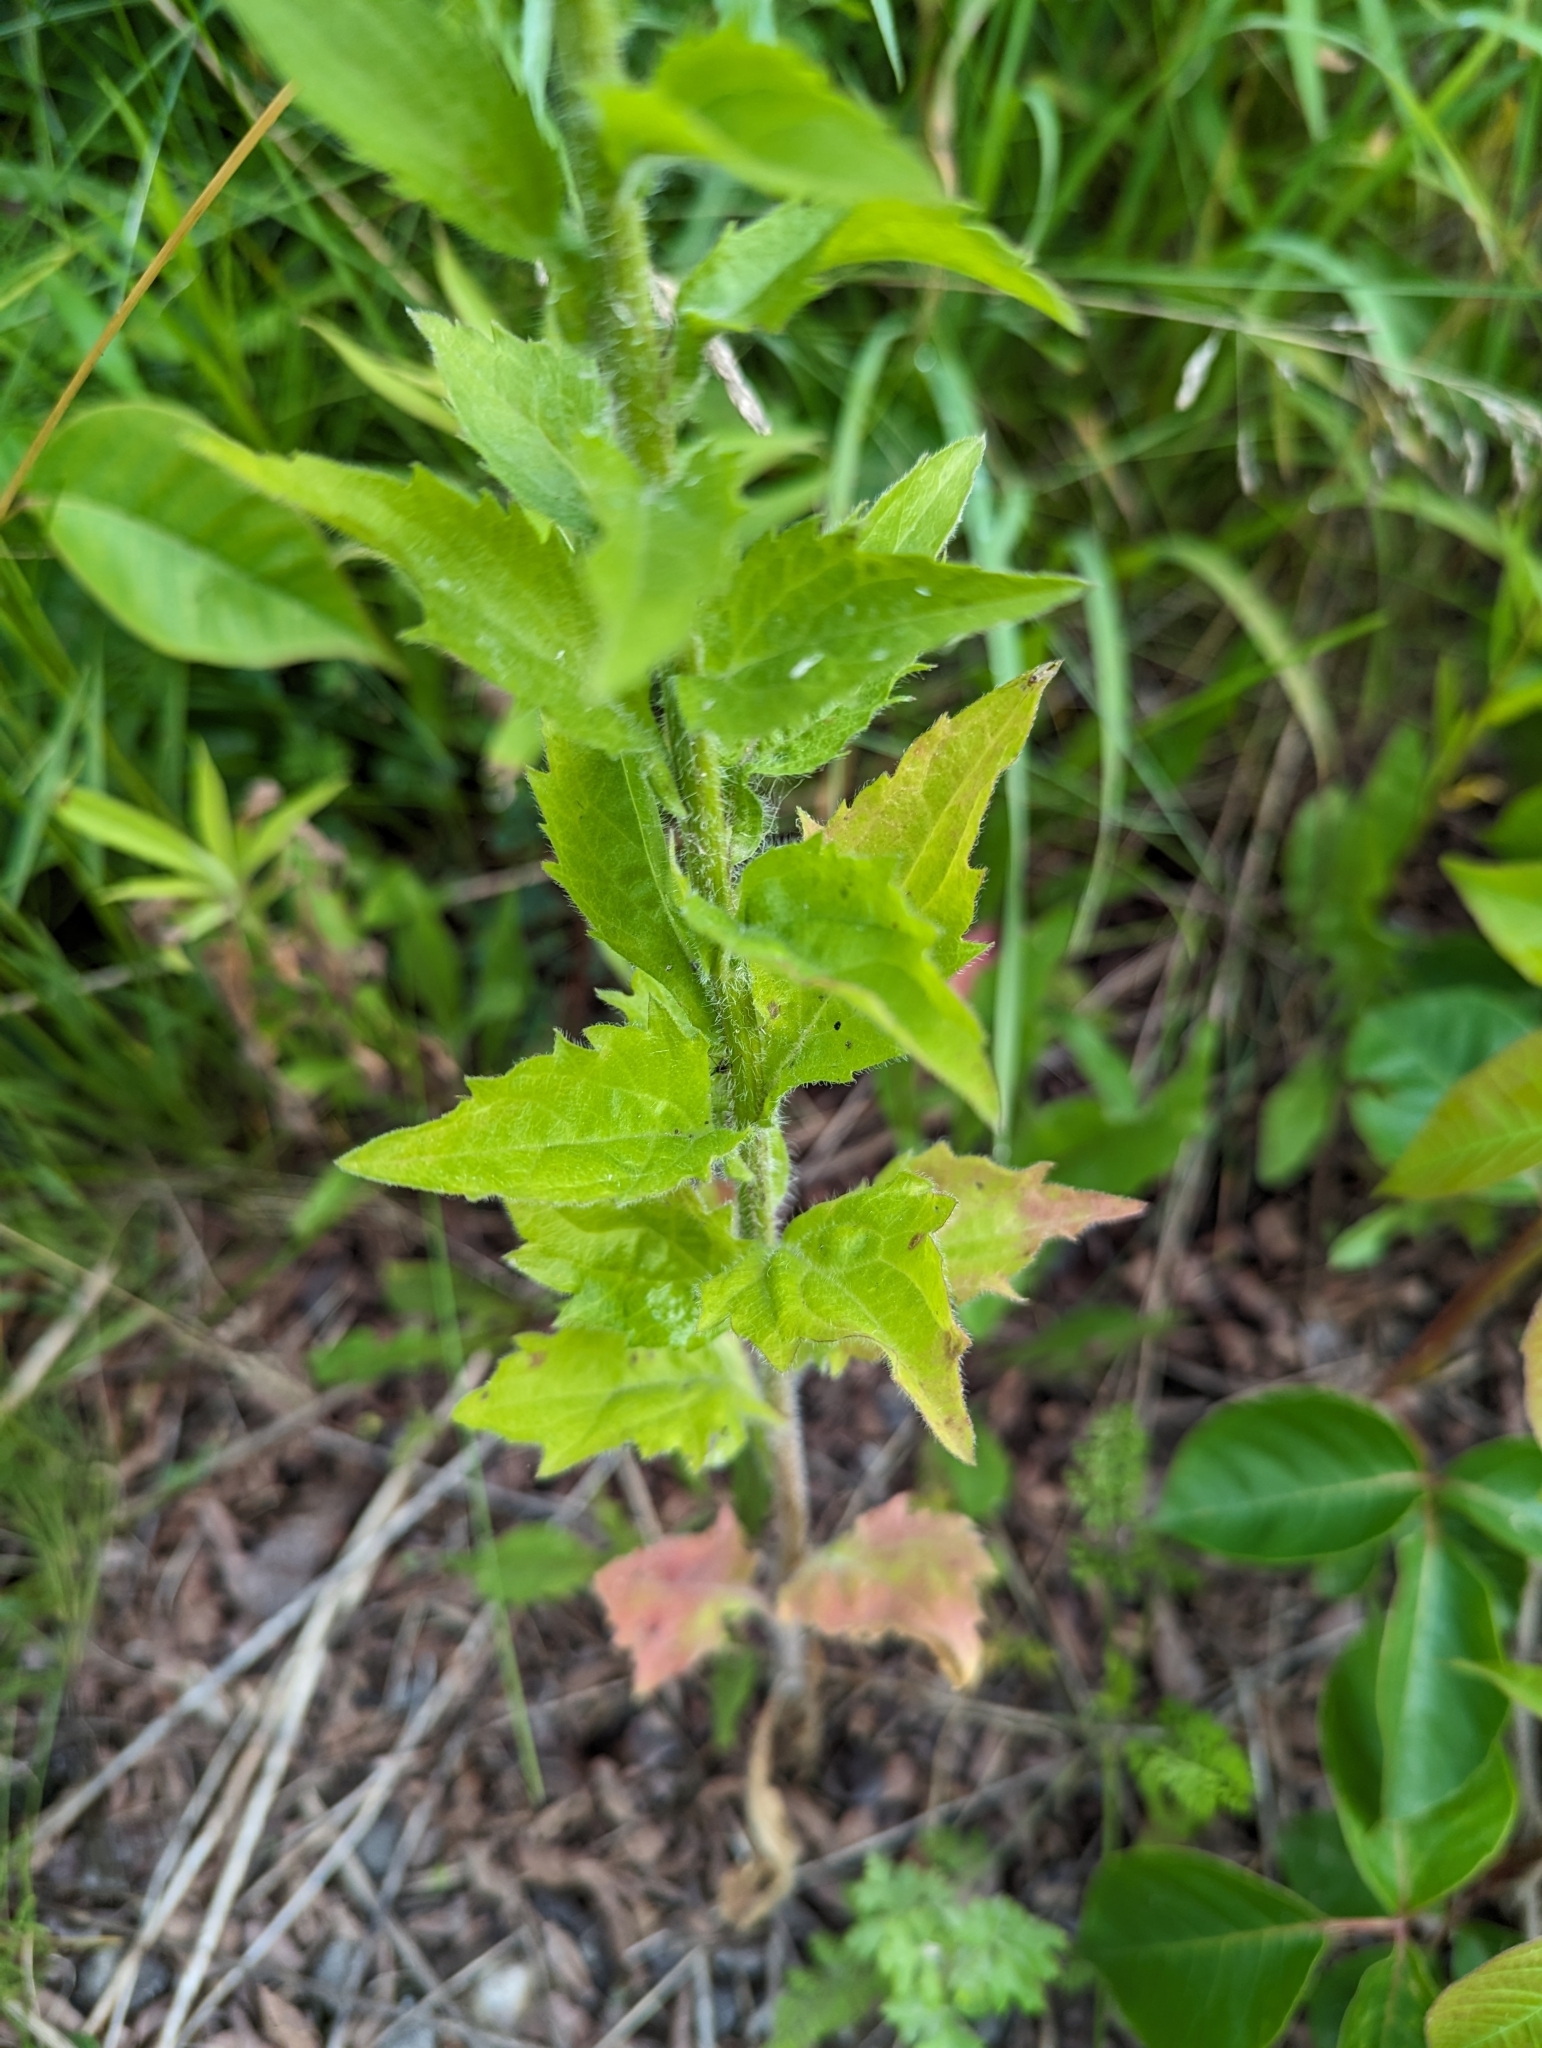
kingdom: Plantae
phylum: Tracheophyta
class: Magnoliopsida
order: Asterales
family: Asteraceae
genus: Erigeron
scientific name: Erigeron annuus
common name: Tall fleabane
